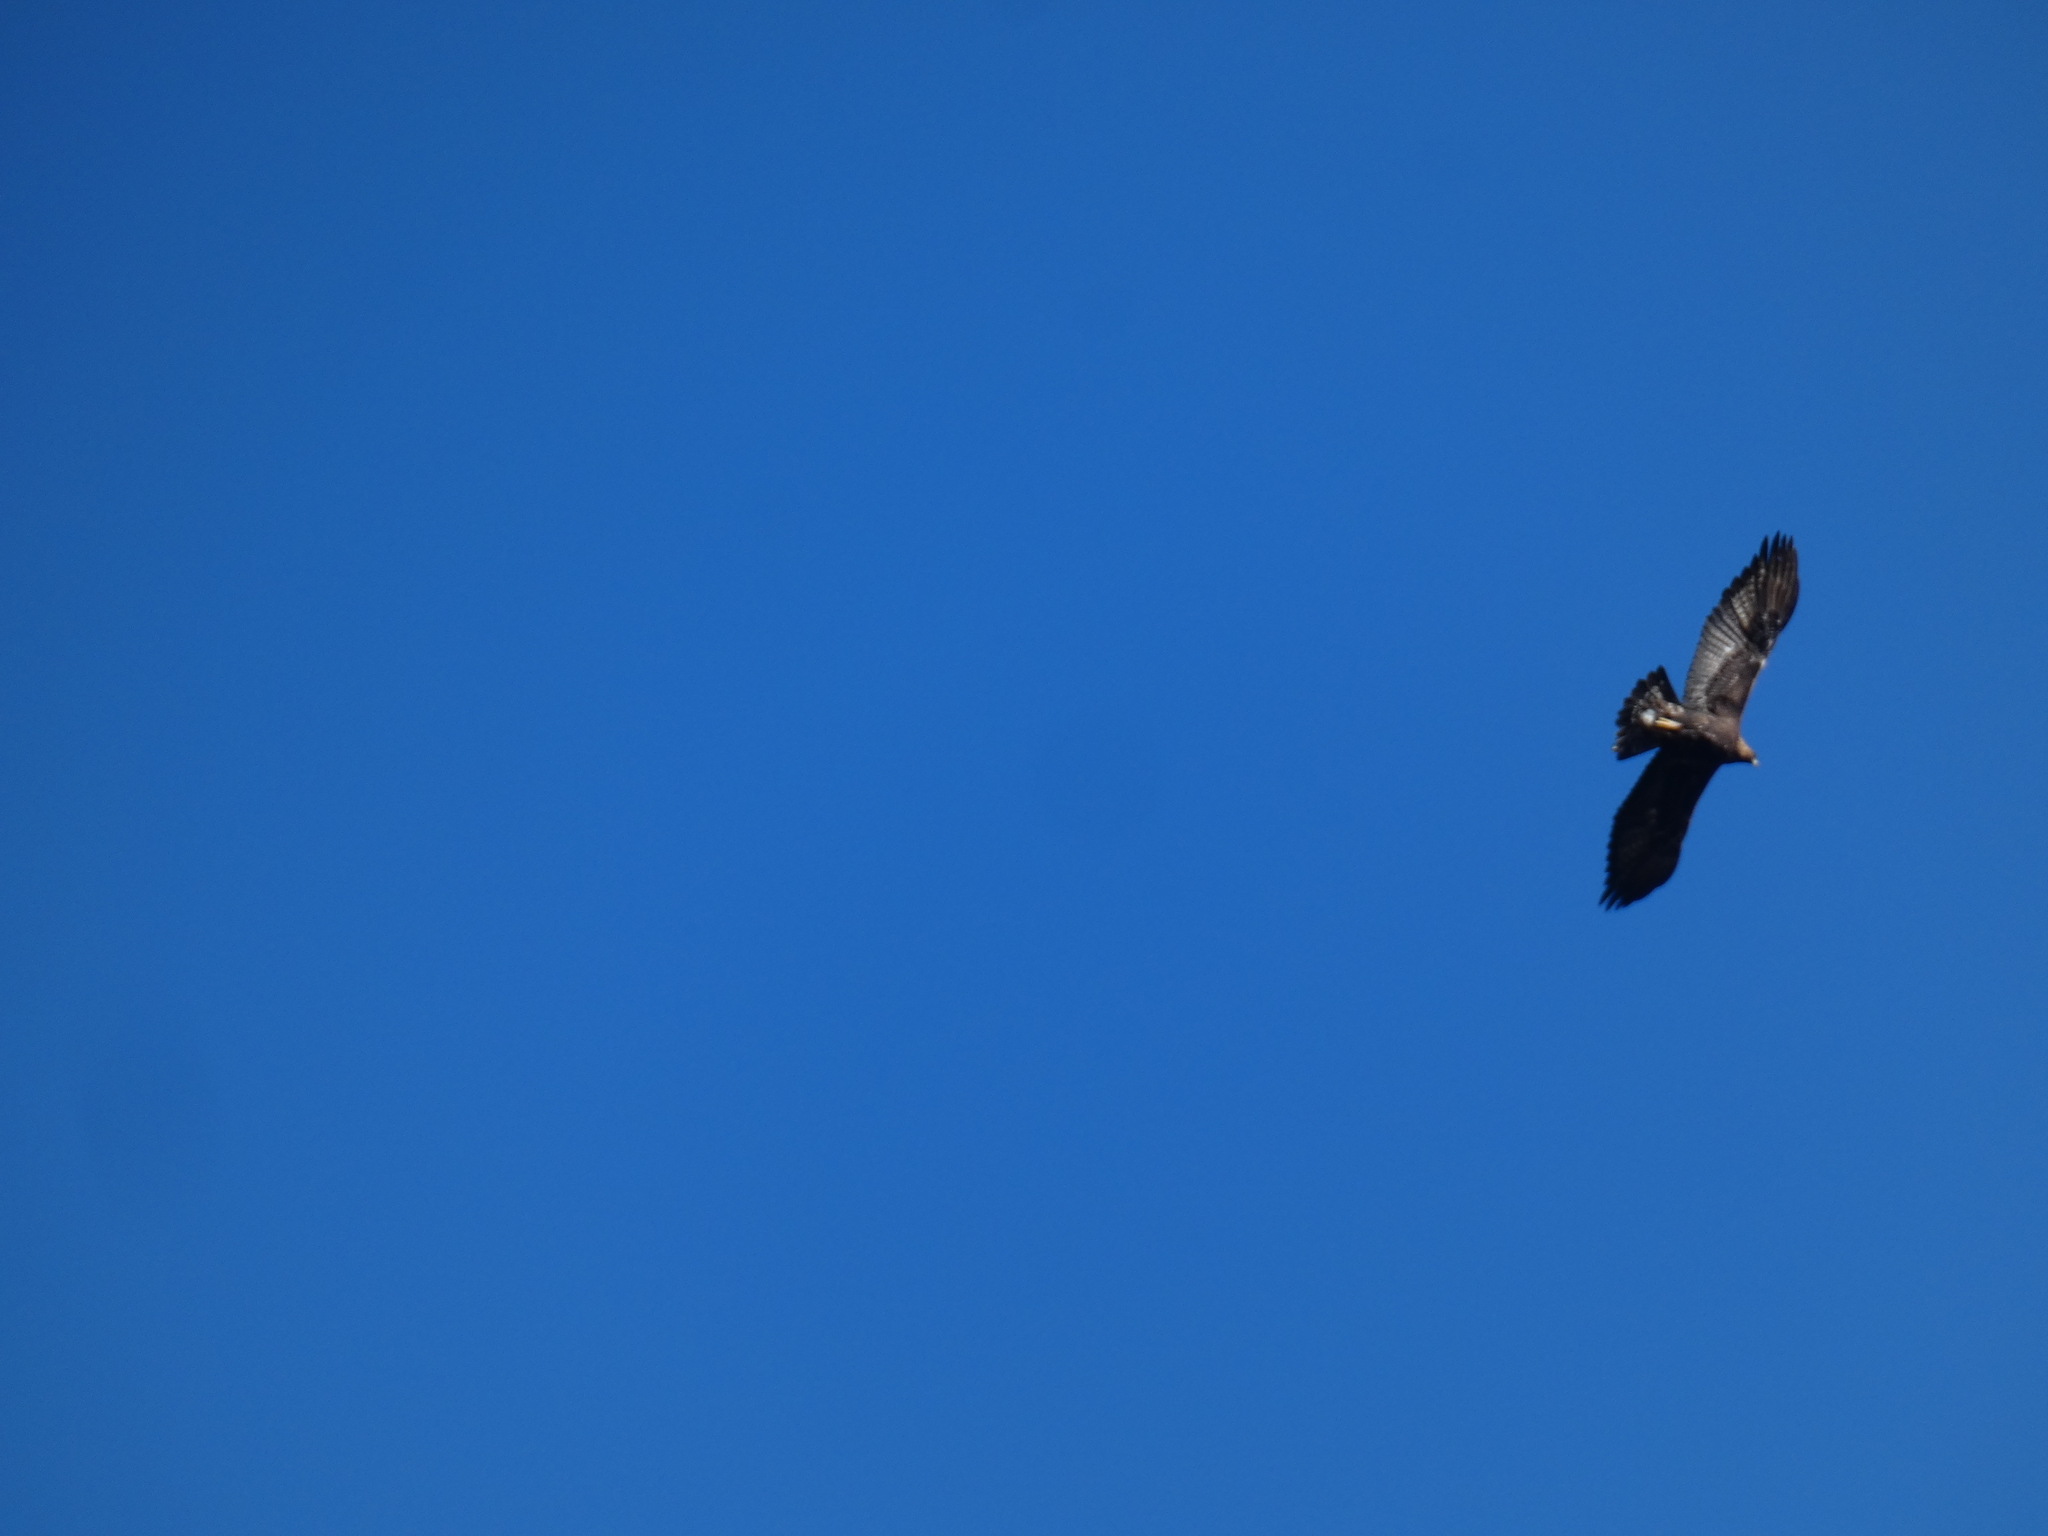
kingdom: Animalia
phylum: Chordata
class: Aves
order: Accipitriformes
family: Accipitridae
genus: Aquila
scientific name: Aquila chrysaetos
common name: Golden eagle
